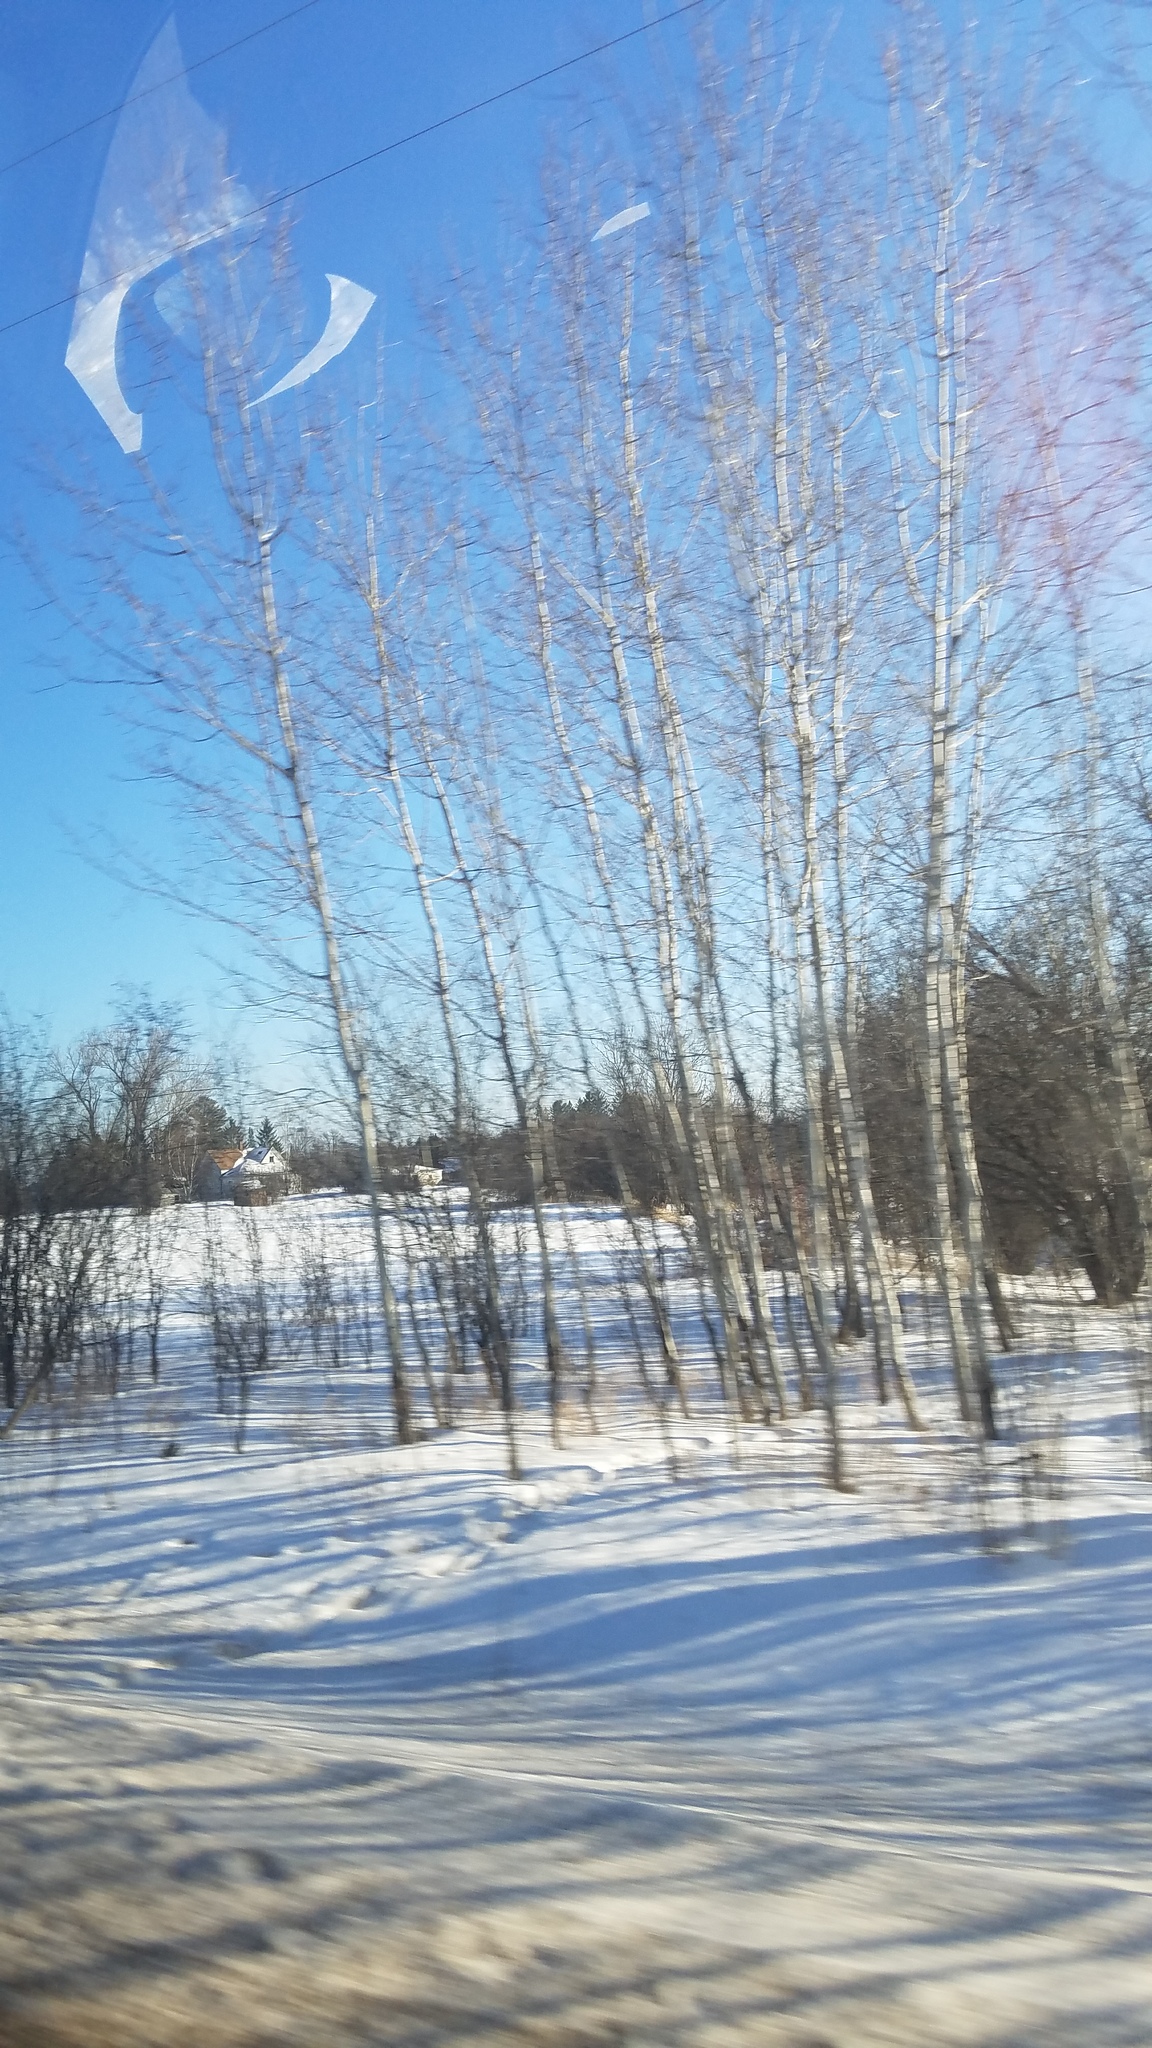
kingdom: Plantae
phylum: Tracheophyta
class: Magnoliopsida
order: Malpighiales
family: Salicaceae
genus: Populus
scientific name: Populus tremuloides
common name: Quaking aspen
